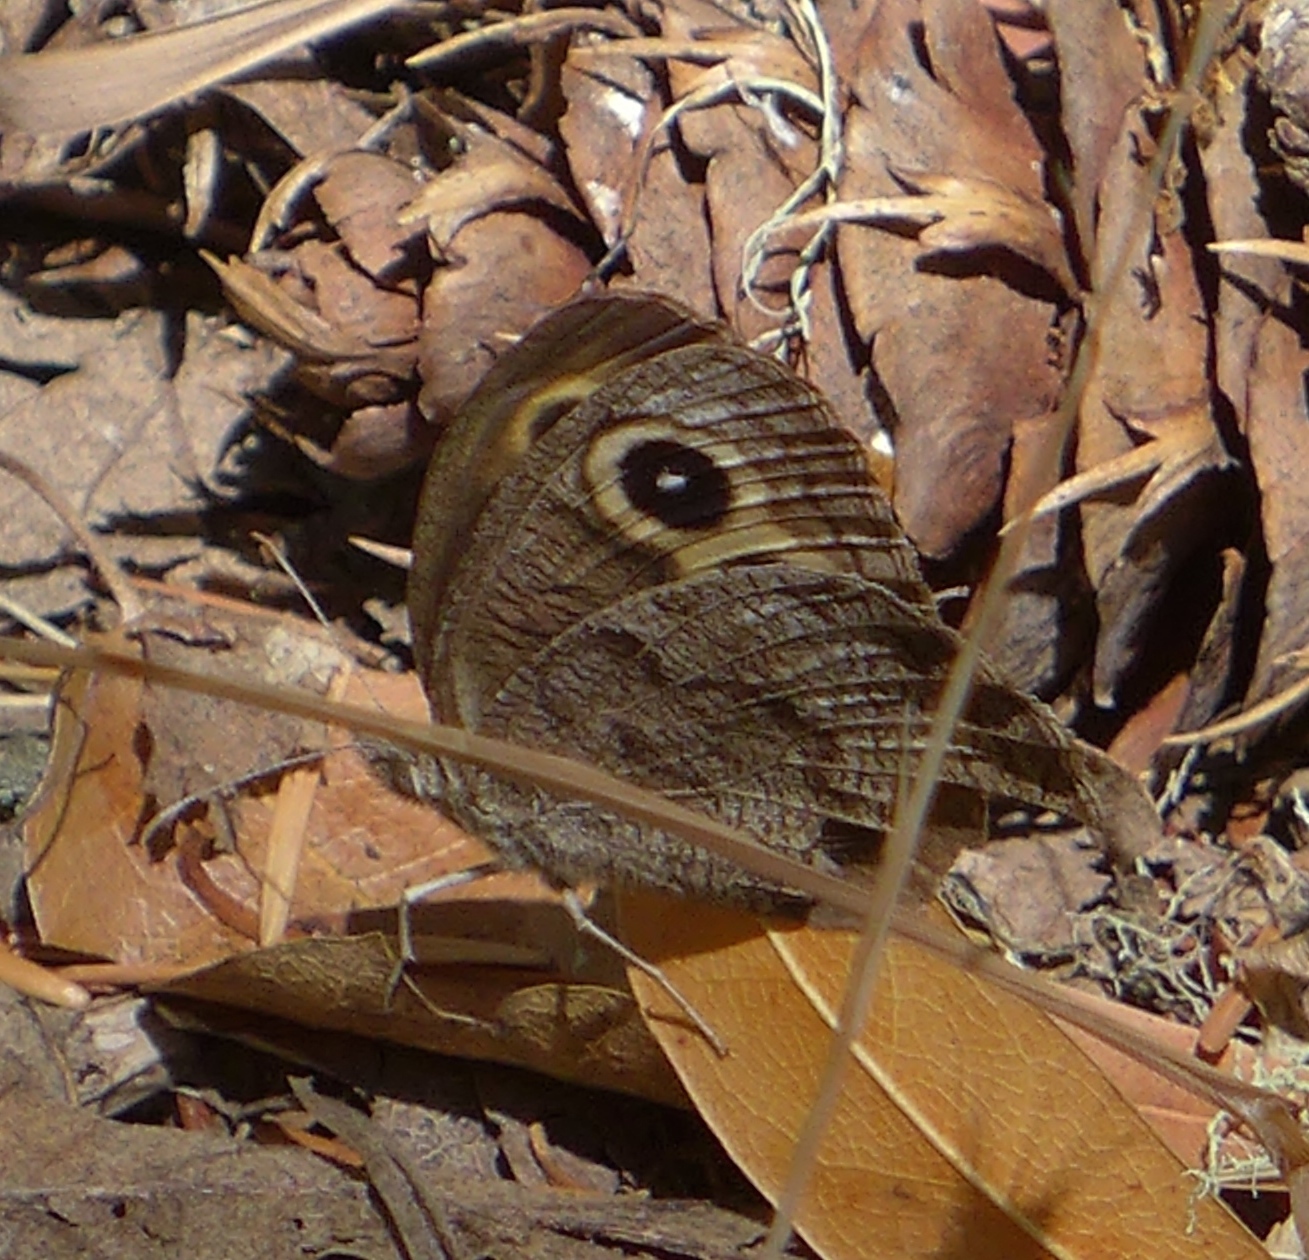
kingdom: Animalia
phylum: Arthropoda
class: Insecta
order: Lepidoptera
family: Nymphalidae
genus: Cercyonis
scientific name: Cercyonis pegala
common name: Common wood-nymph
